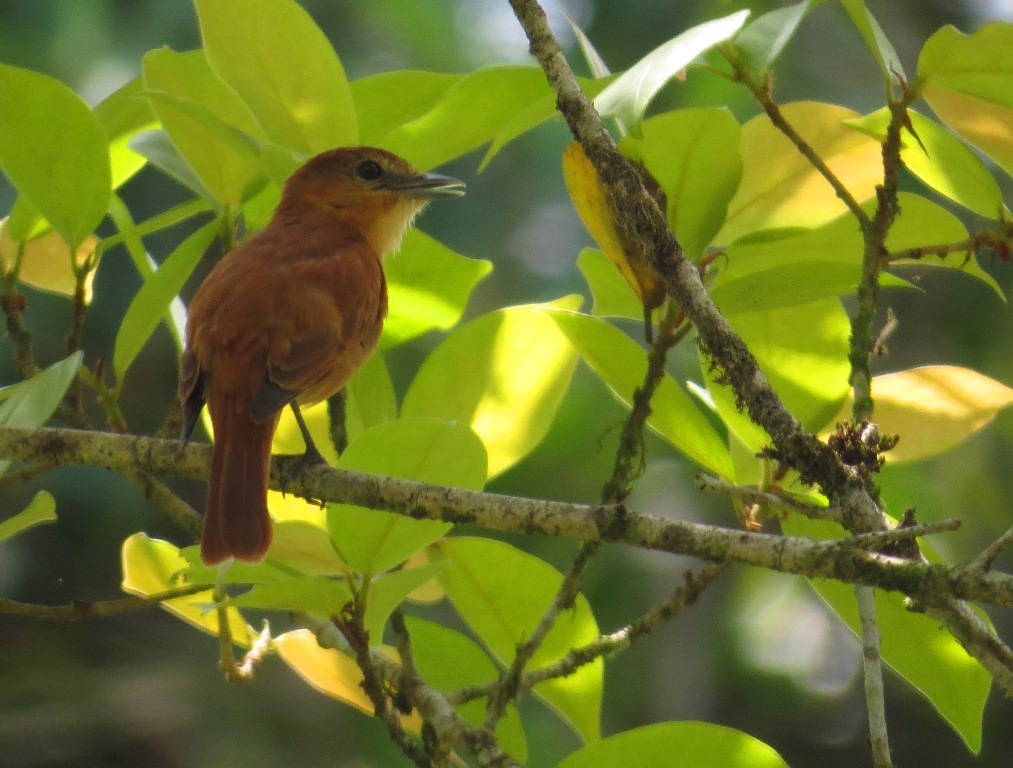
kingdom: Animalia
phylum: Chordata
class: Aves
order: Passeriformes
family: Cotingidae
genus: Pachyramphus
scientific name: Pachyramphus cinnamomeus
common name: Cinnamon becard
